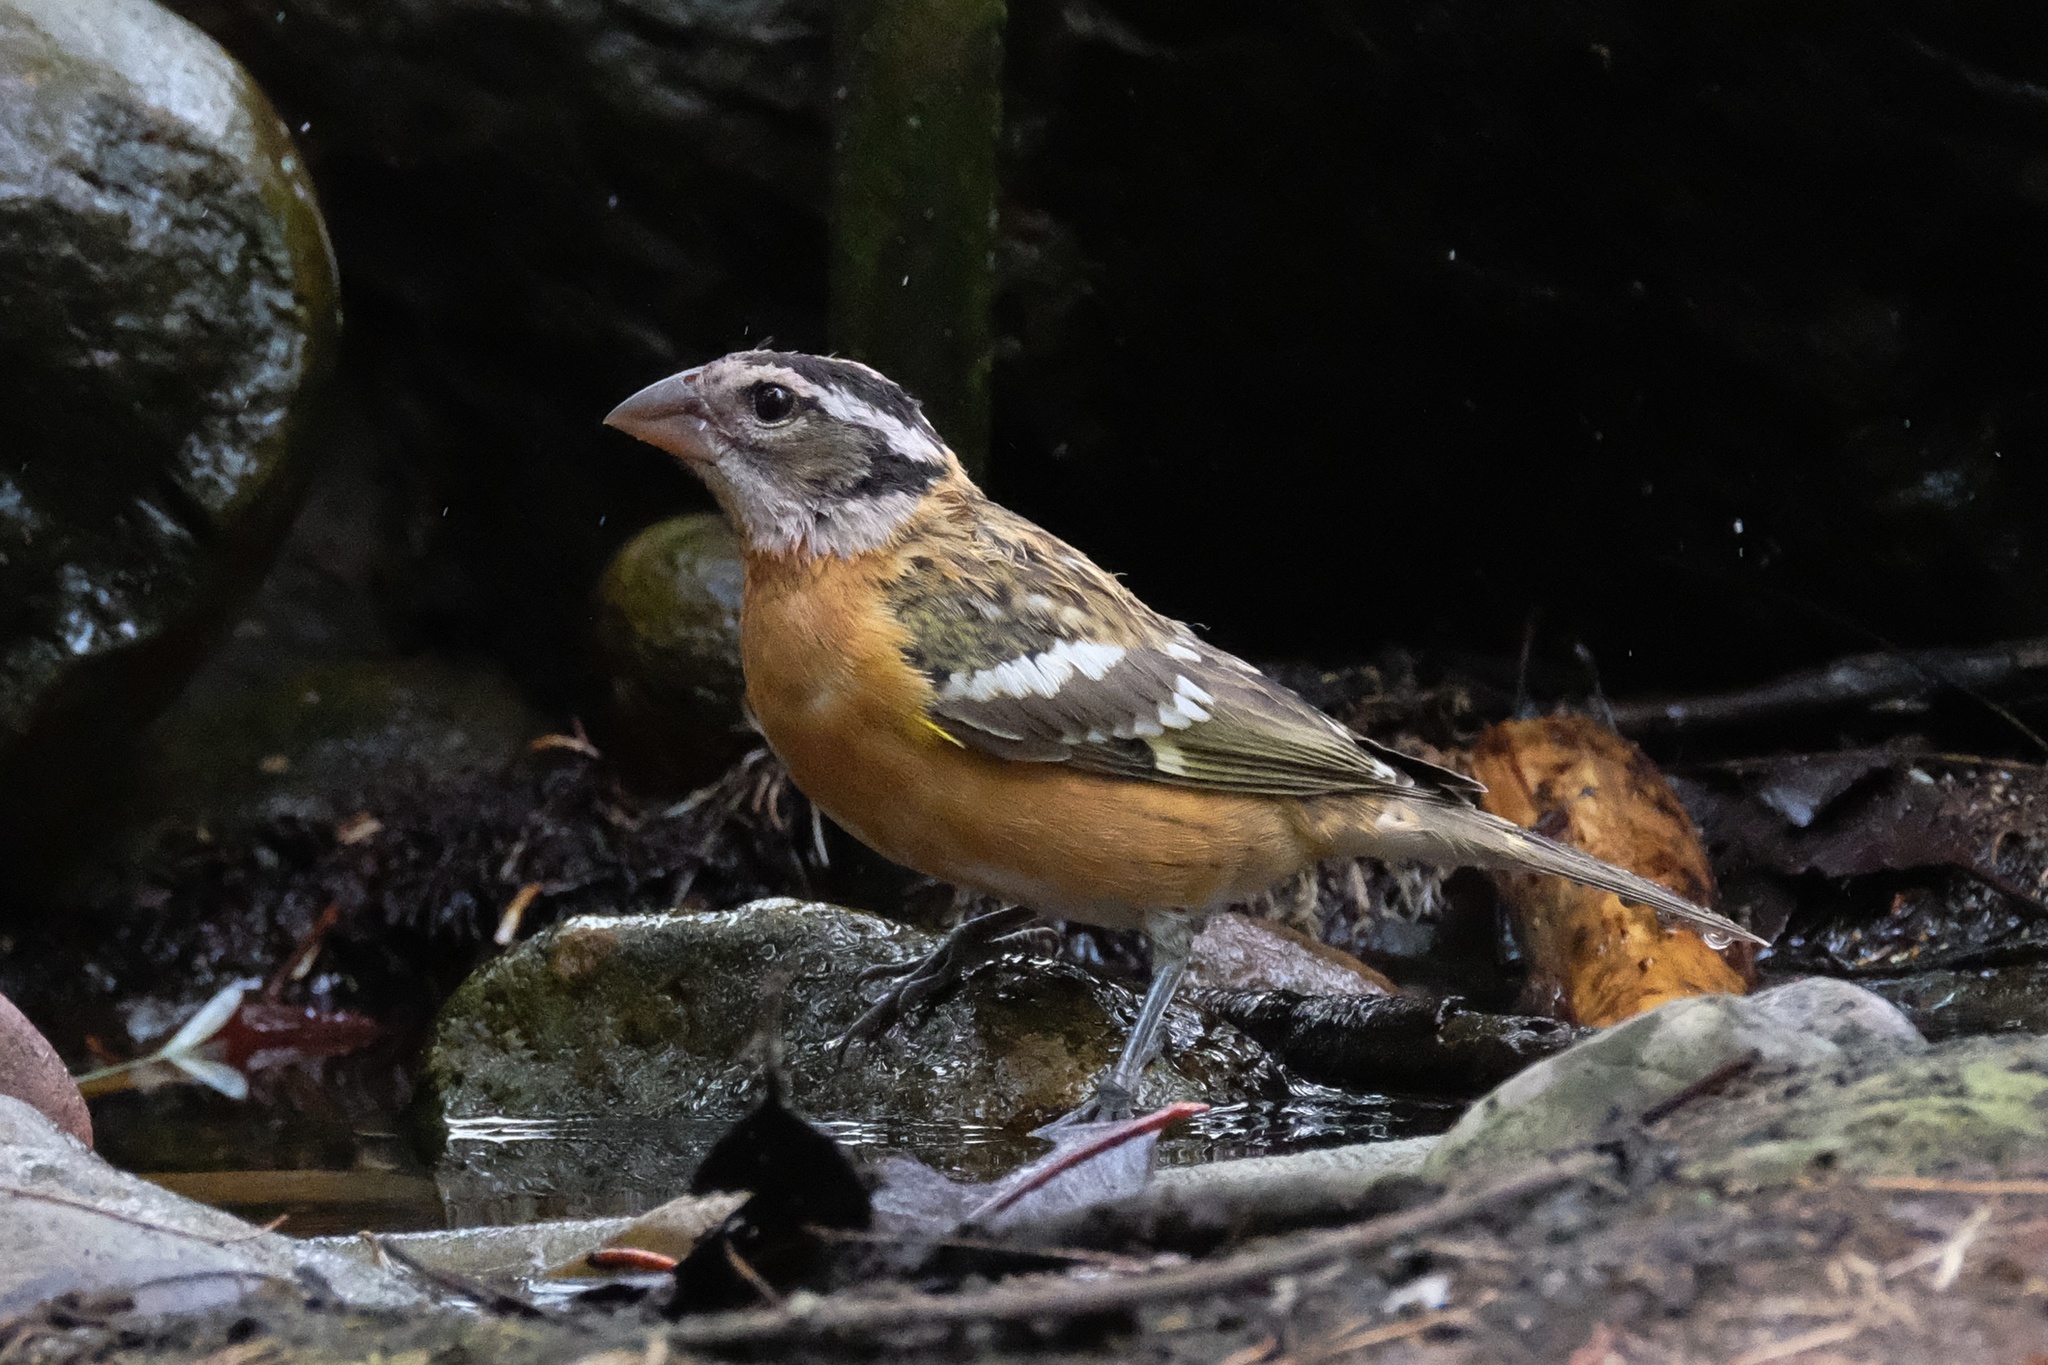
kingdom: Animalia
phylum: Chordata
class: Aves
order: Passeriformes
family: Cardinalidae
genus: Pheucticus
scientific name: Pheucticus melanocephalus
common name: Black-headed grosbeak
